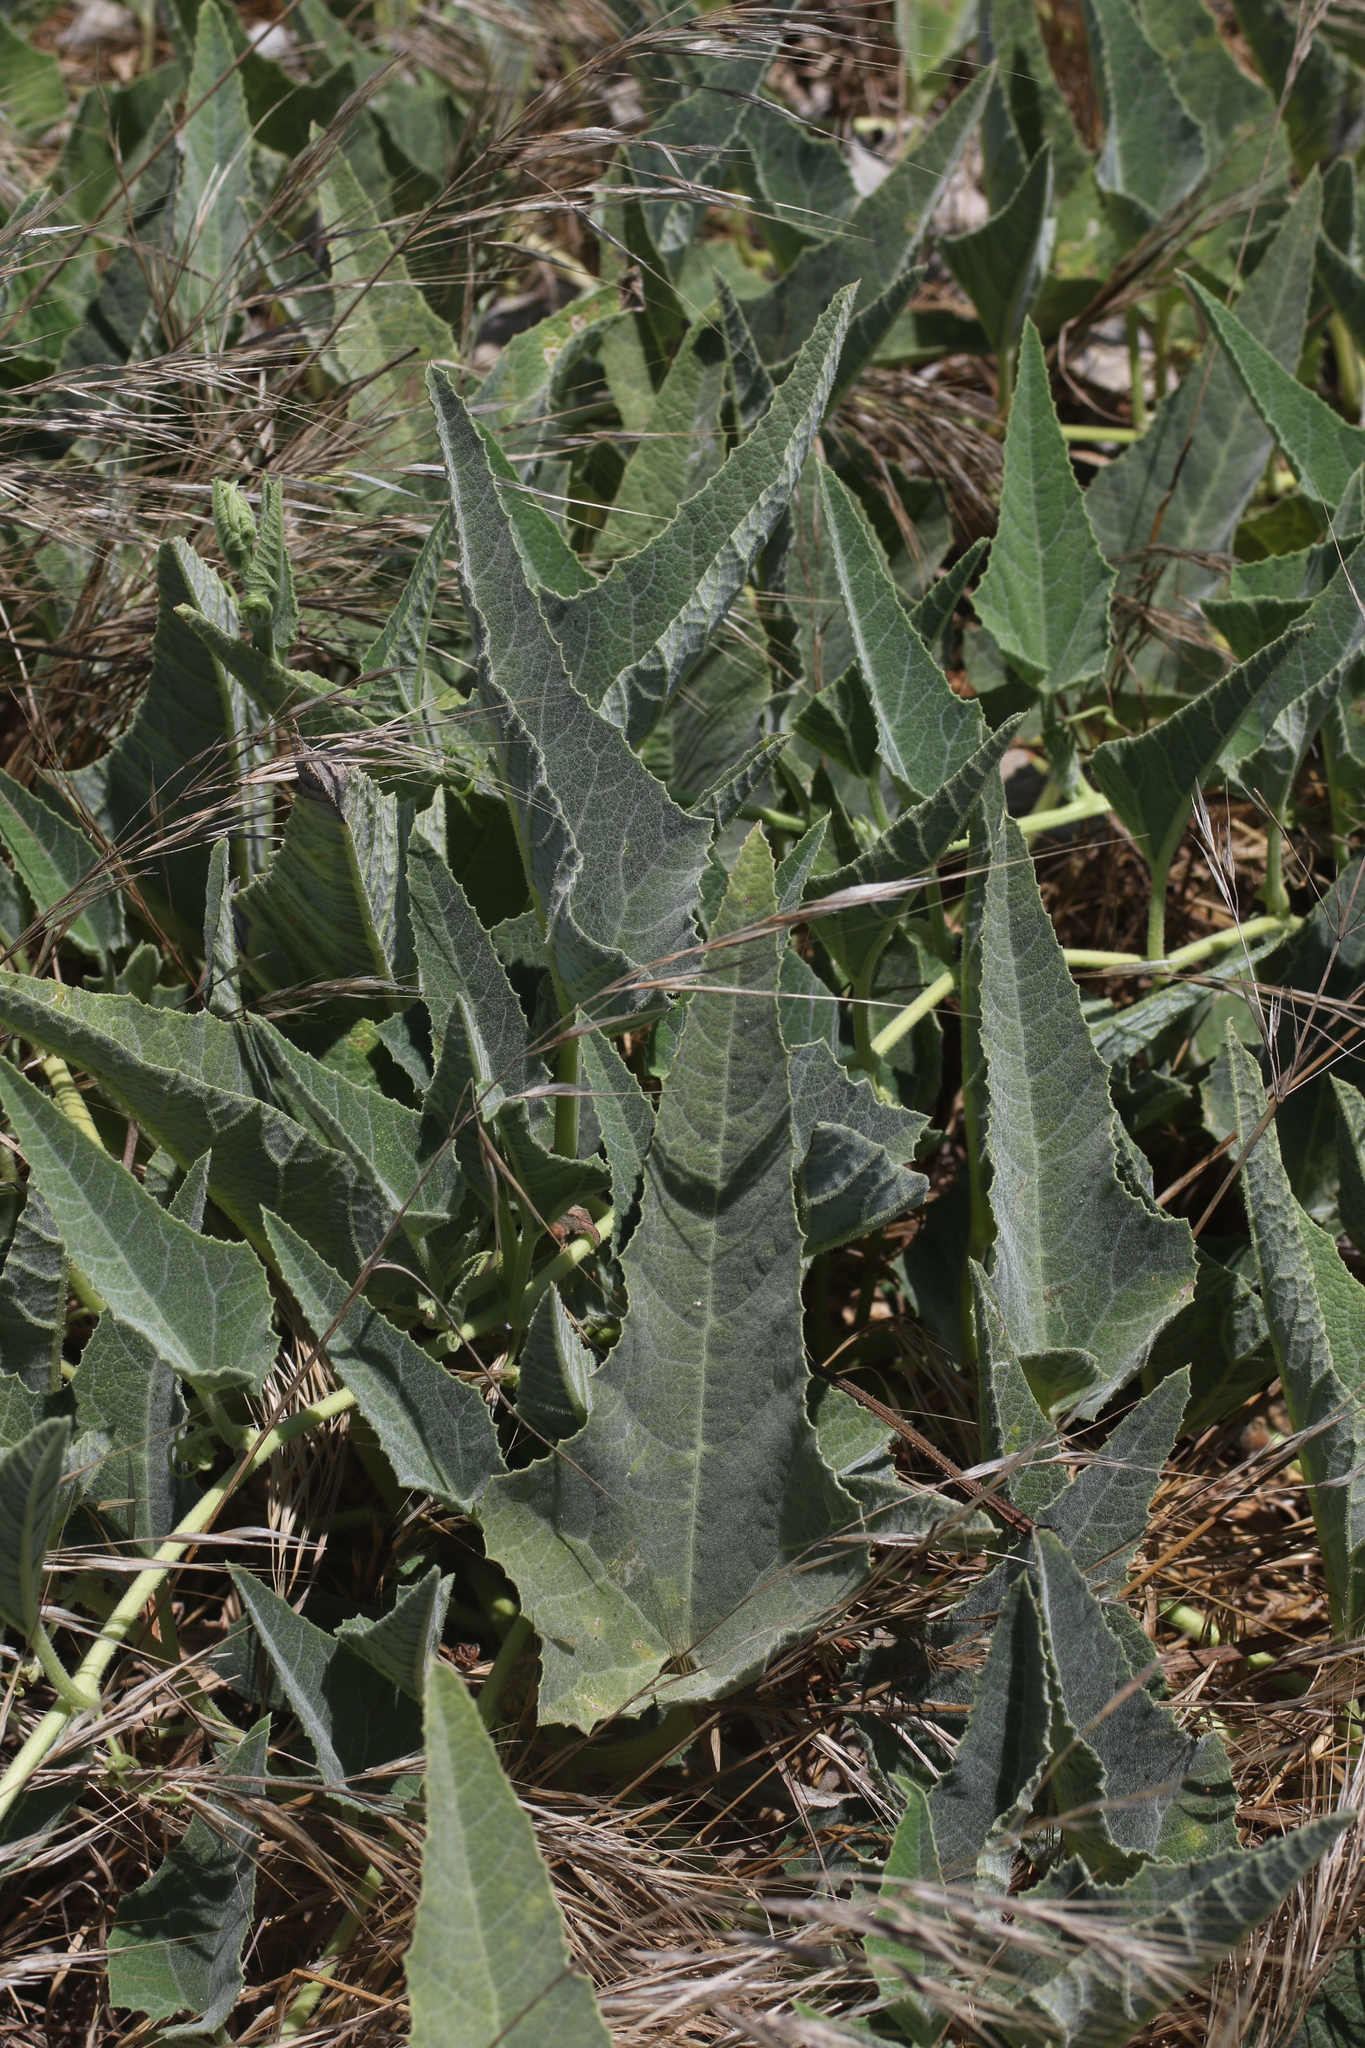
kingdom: Plantae
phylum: Tracheophyta
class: Magnoliopsida
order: Cucurbitales
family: Cucurbitaceae
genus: Cucurbita
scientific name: Cucurbita foetidissima
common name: Buffalo gourd
